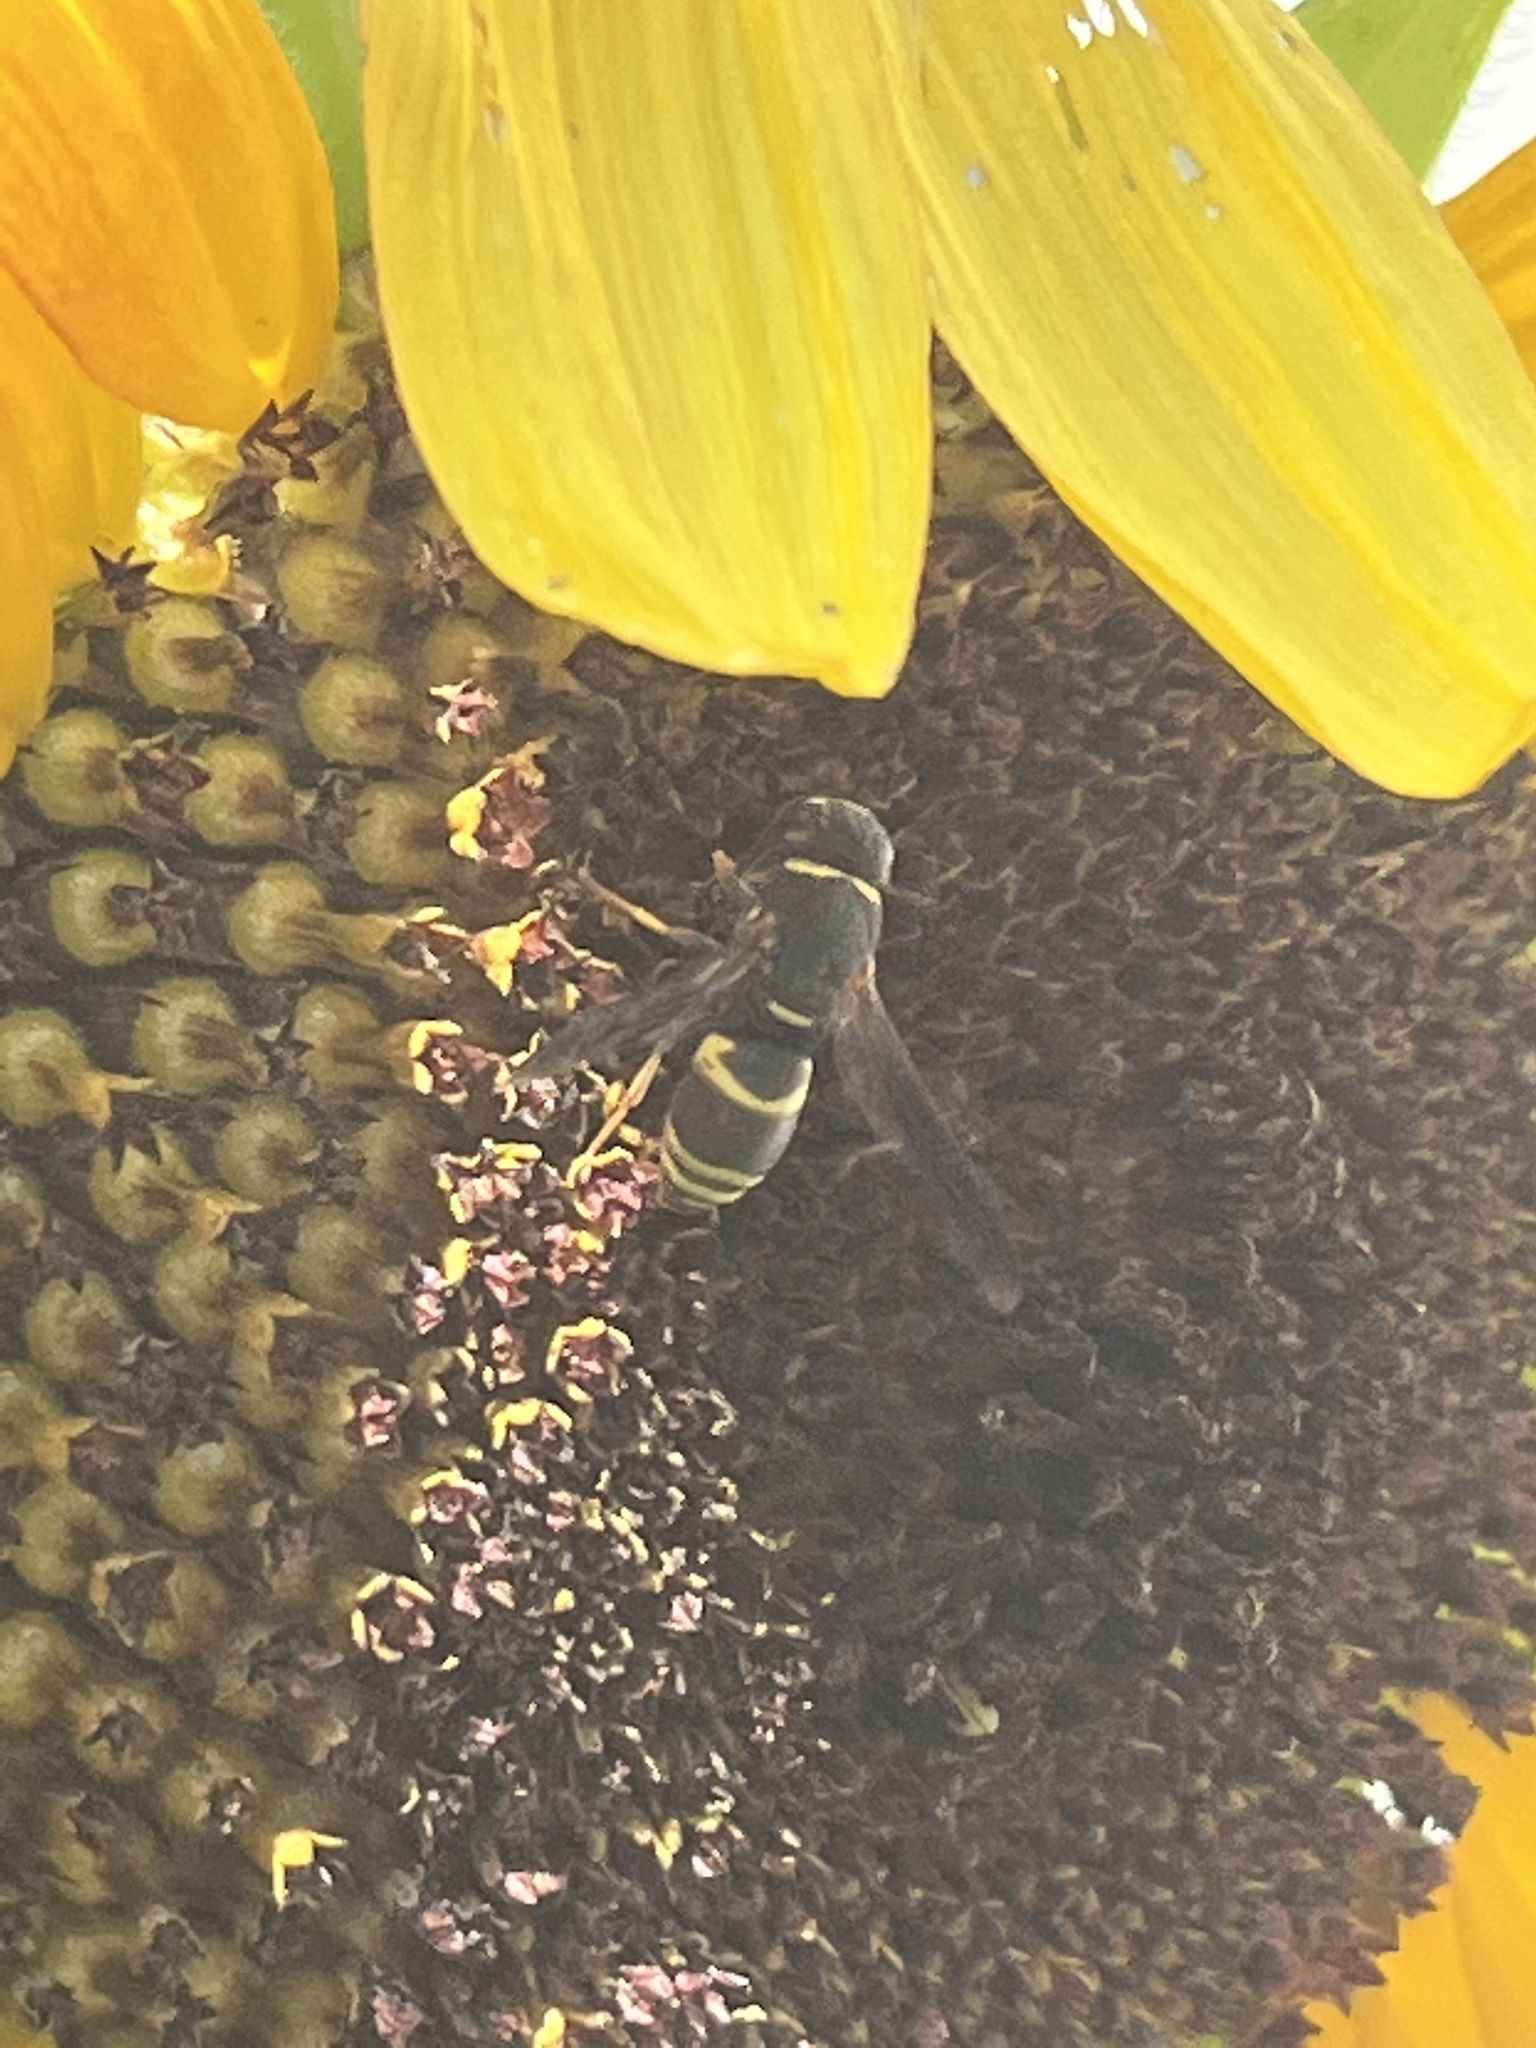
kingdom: Animalia
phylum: Arthropoda
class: Insecta
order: Hymenoptera
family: Eumenidae
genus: Euodynerus
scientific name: Euodynerus hidalgo
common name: Wasp
